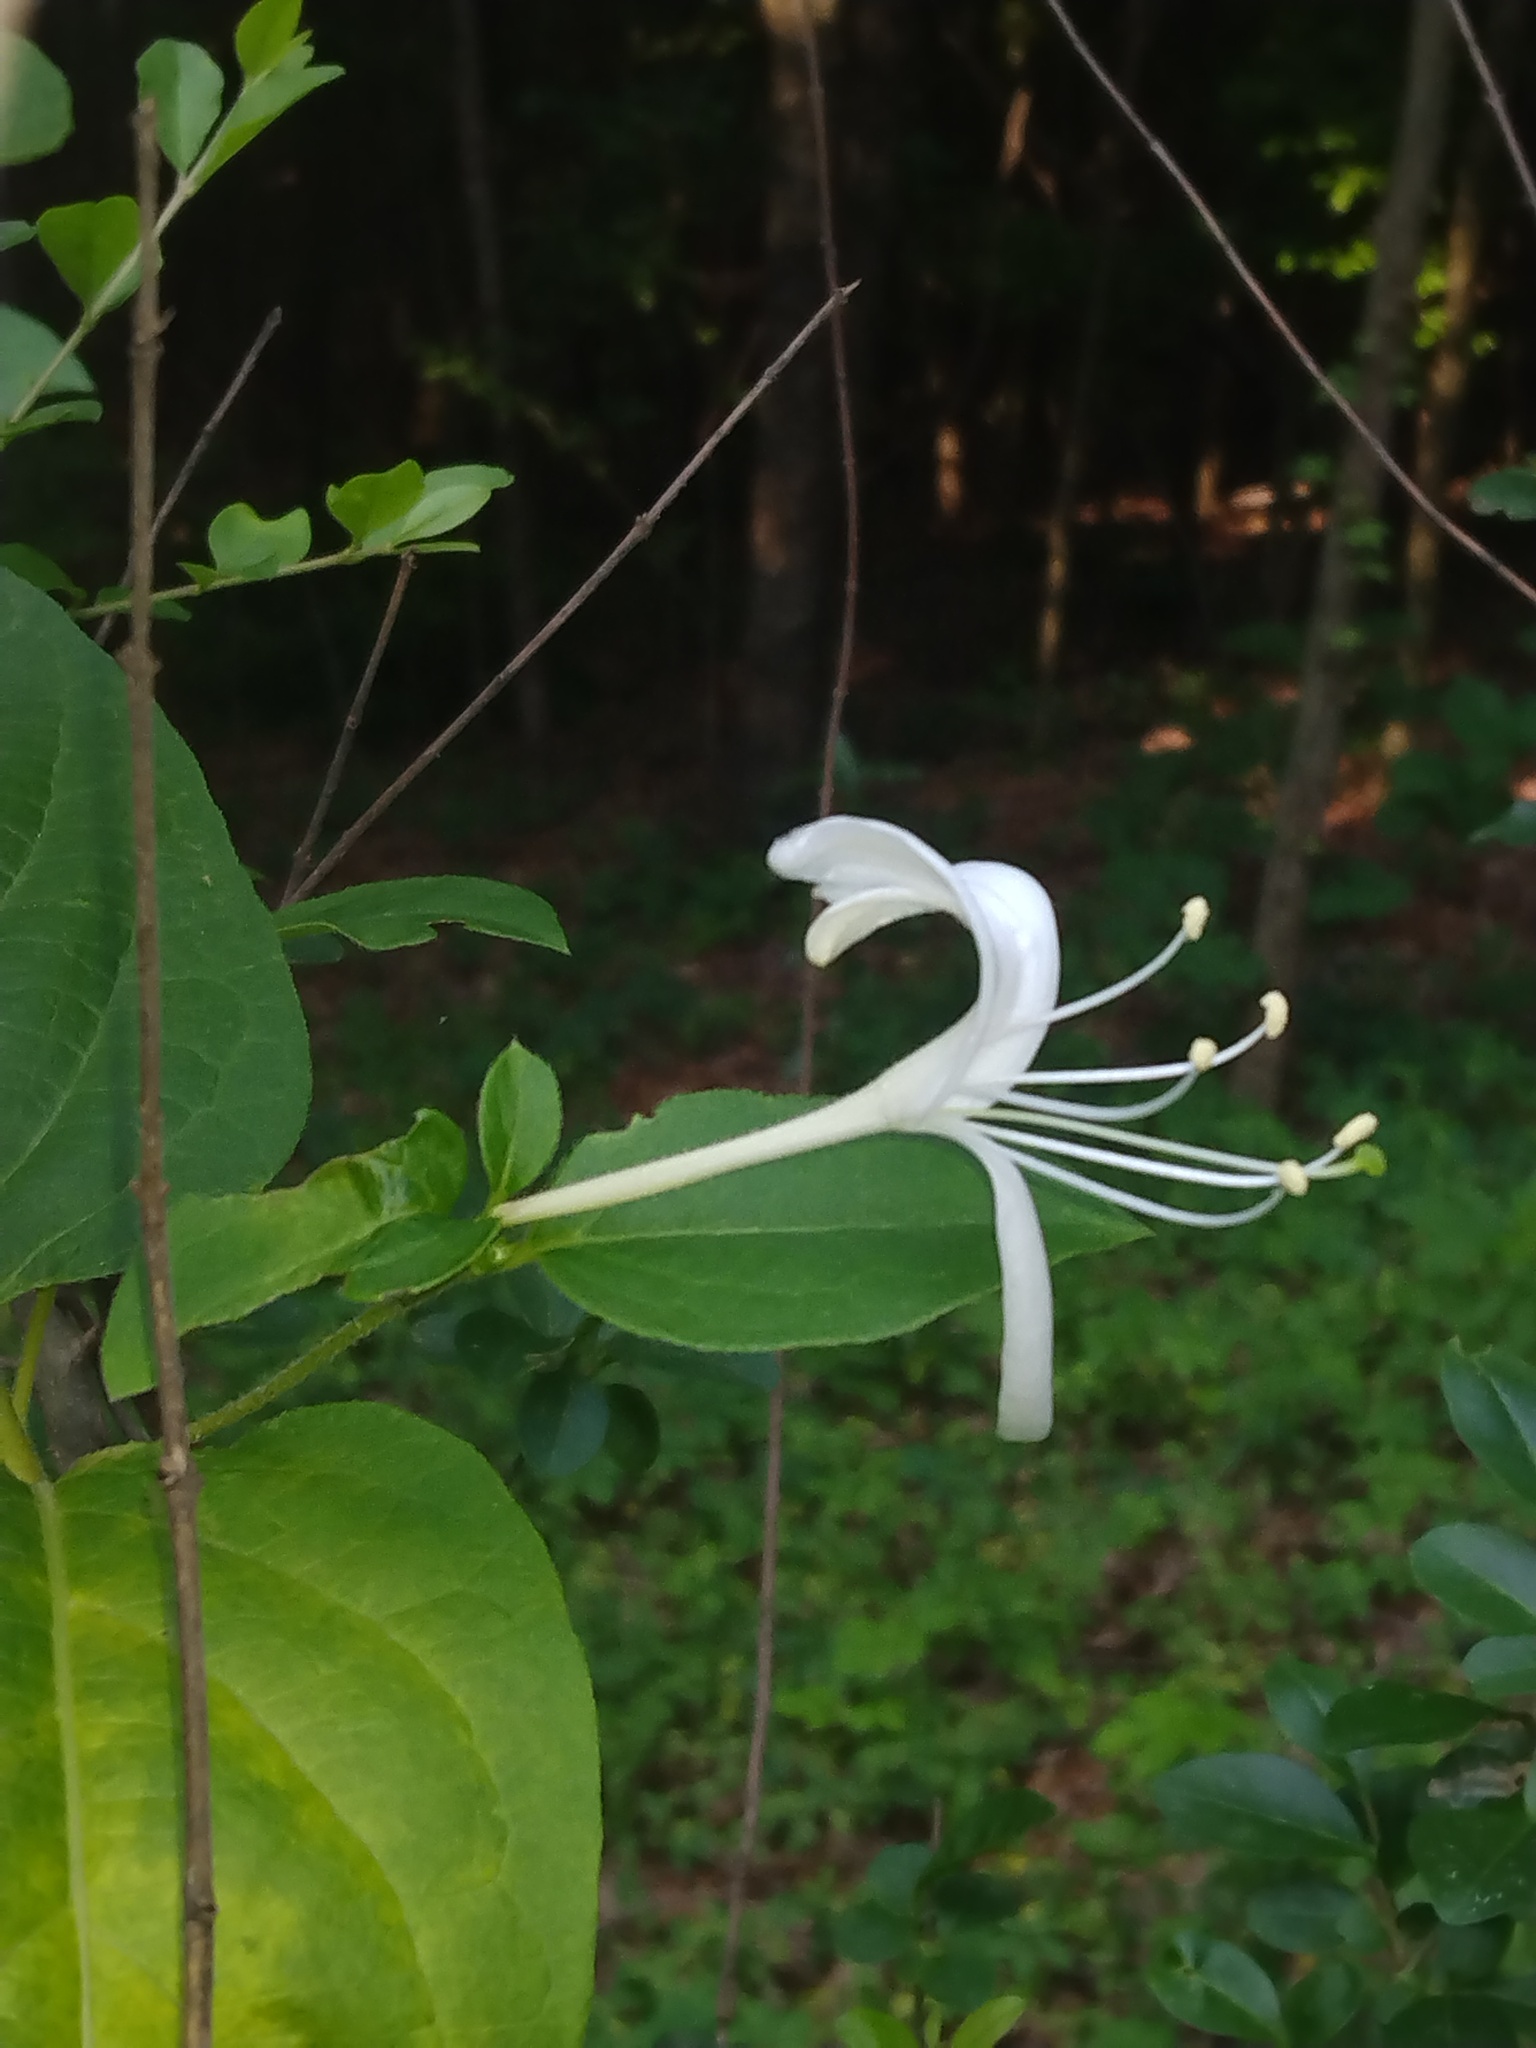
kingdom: Plantae
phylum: Tracheophyta
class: Magnoliopsida
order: Dipsacales
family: Caprifoliaceae
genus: Lonicera
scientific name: Lonicera japonica
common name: Japanese honeysuckle
